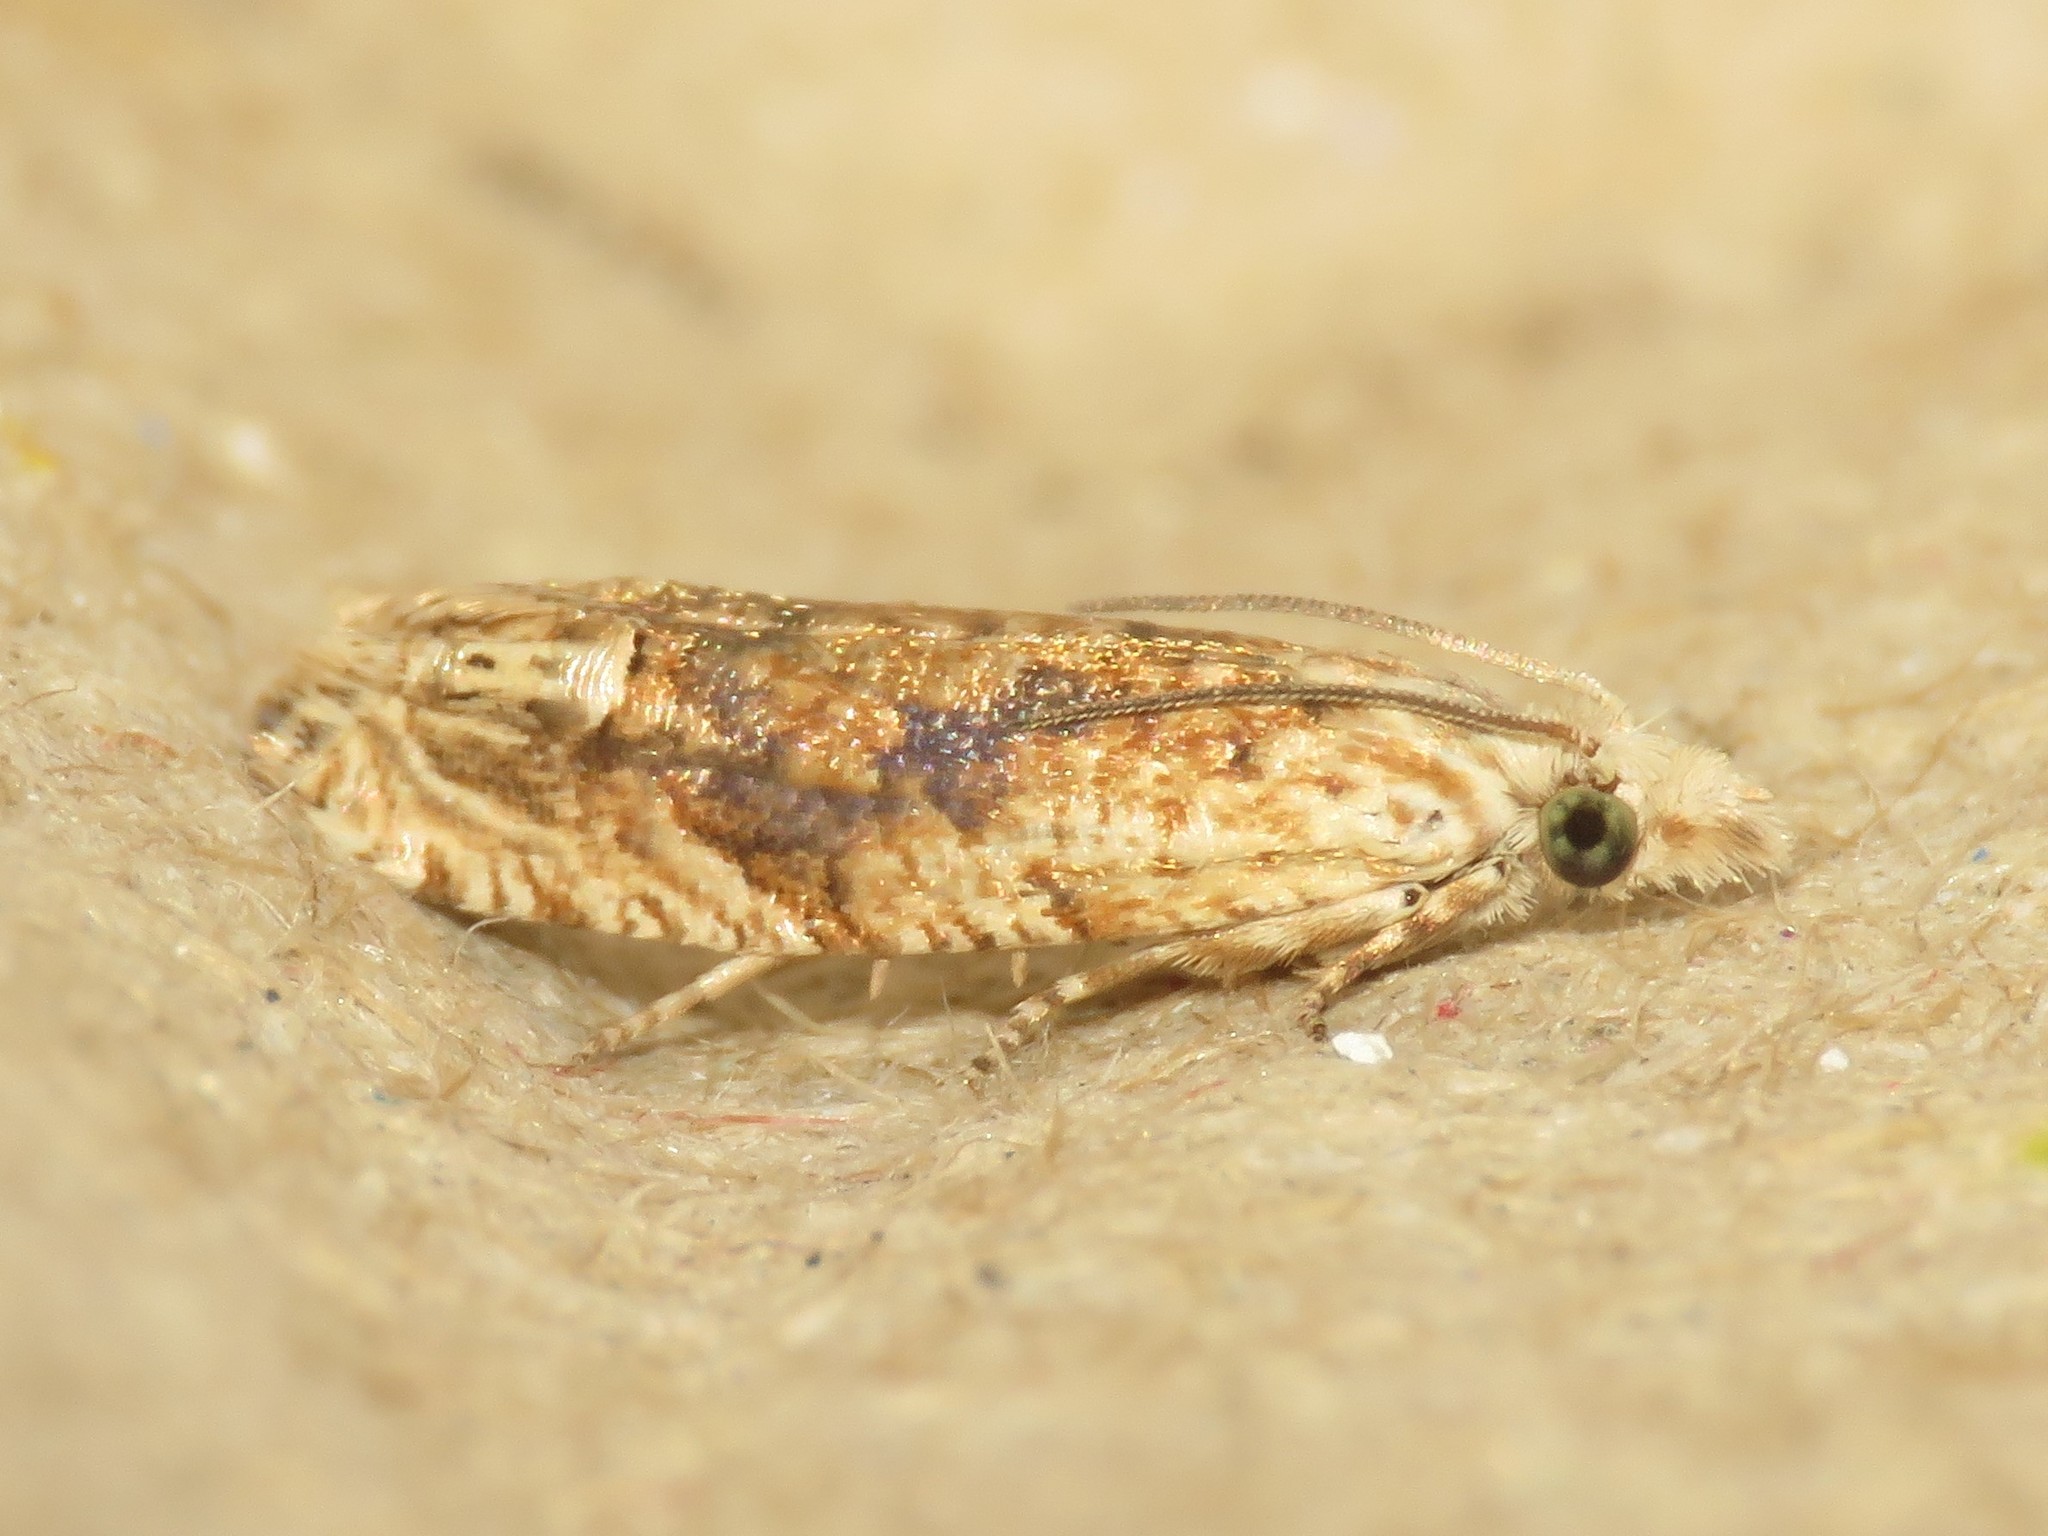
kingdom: Animalia
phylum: Arthropoda
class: Insecta
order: Lepidoptera
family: Tortricidae
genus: Eucosma
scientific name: Eucosma ochrocephala
